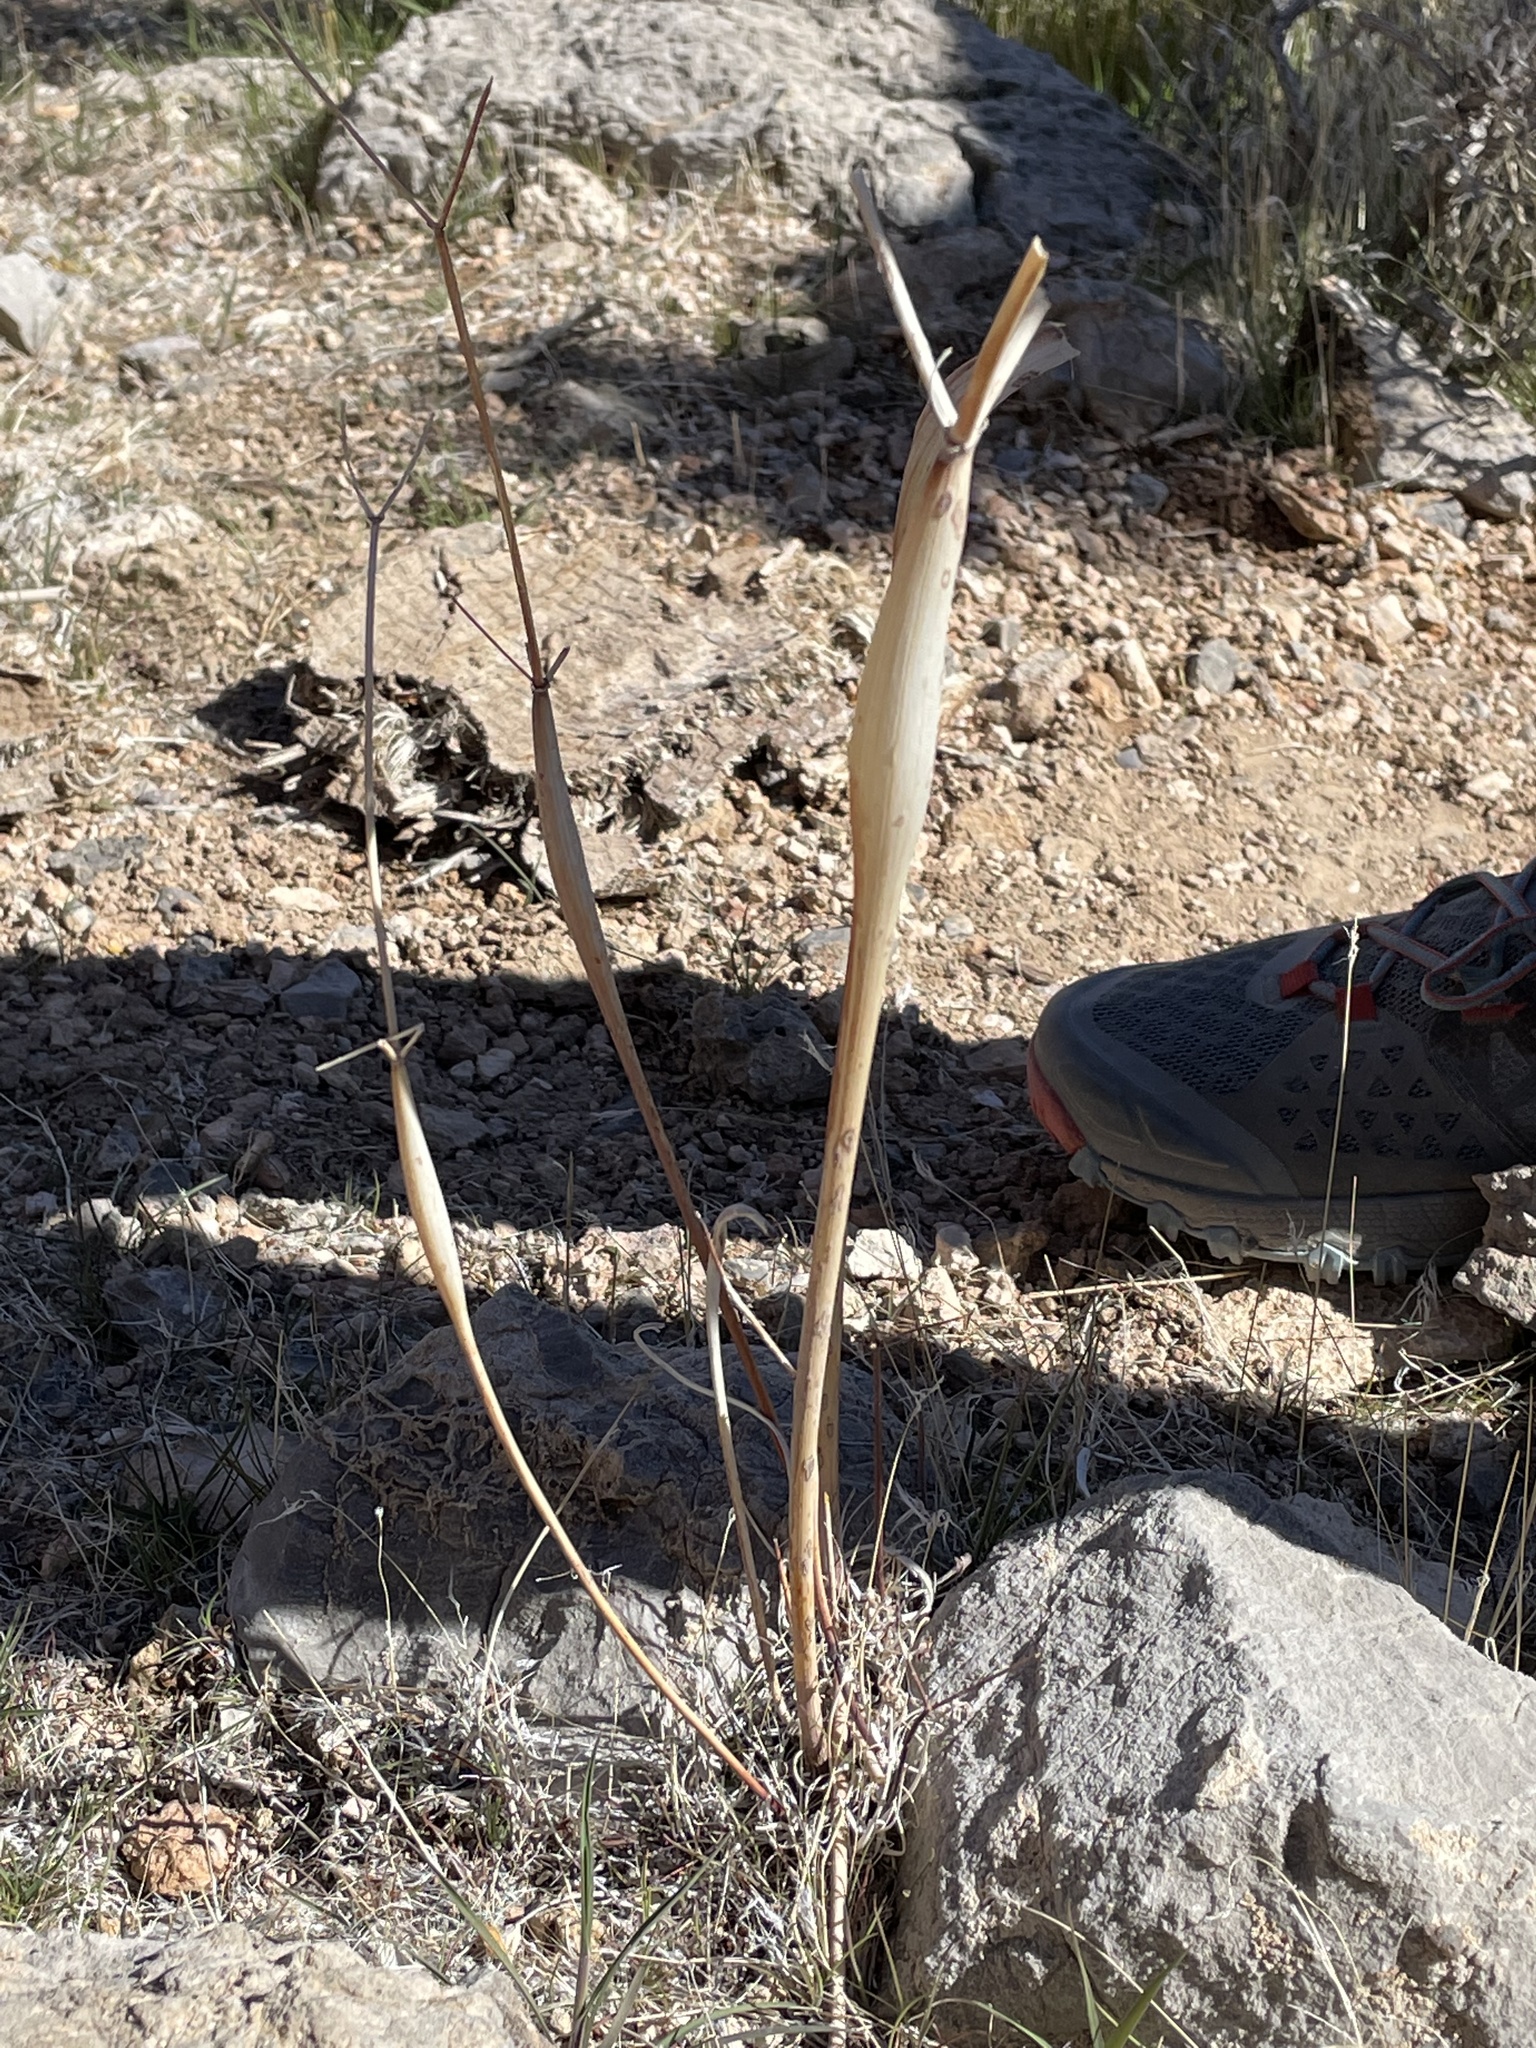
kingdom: Plantae
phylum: Tracheophyta
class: Magnoliopsida
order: Caryophyllales
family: Polygonaceae
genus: Eriogonum
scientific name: Eriogonum inflatum
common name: Desert trumpet
